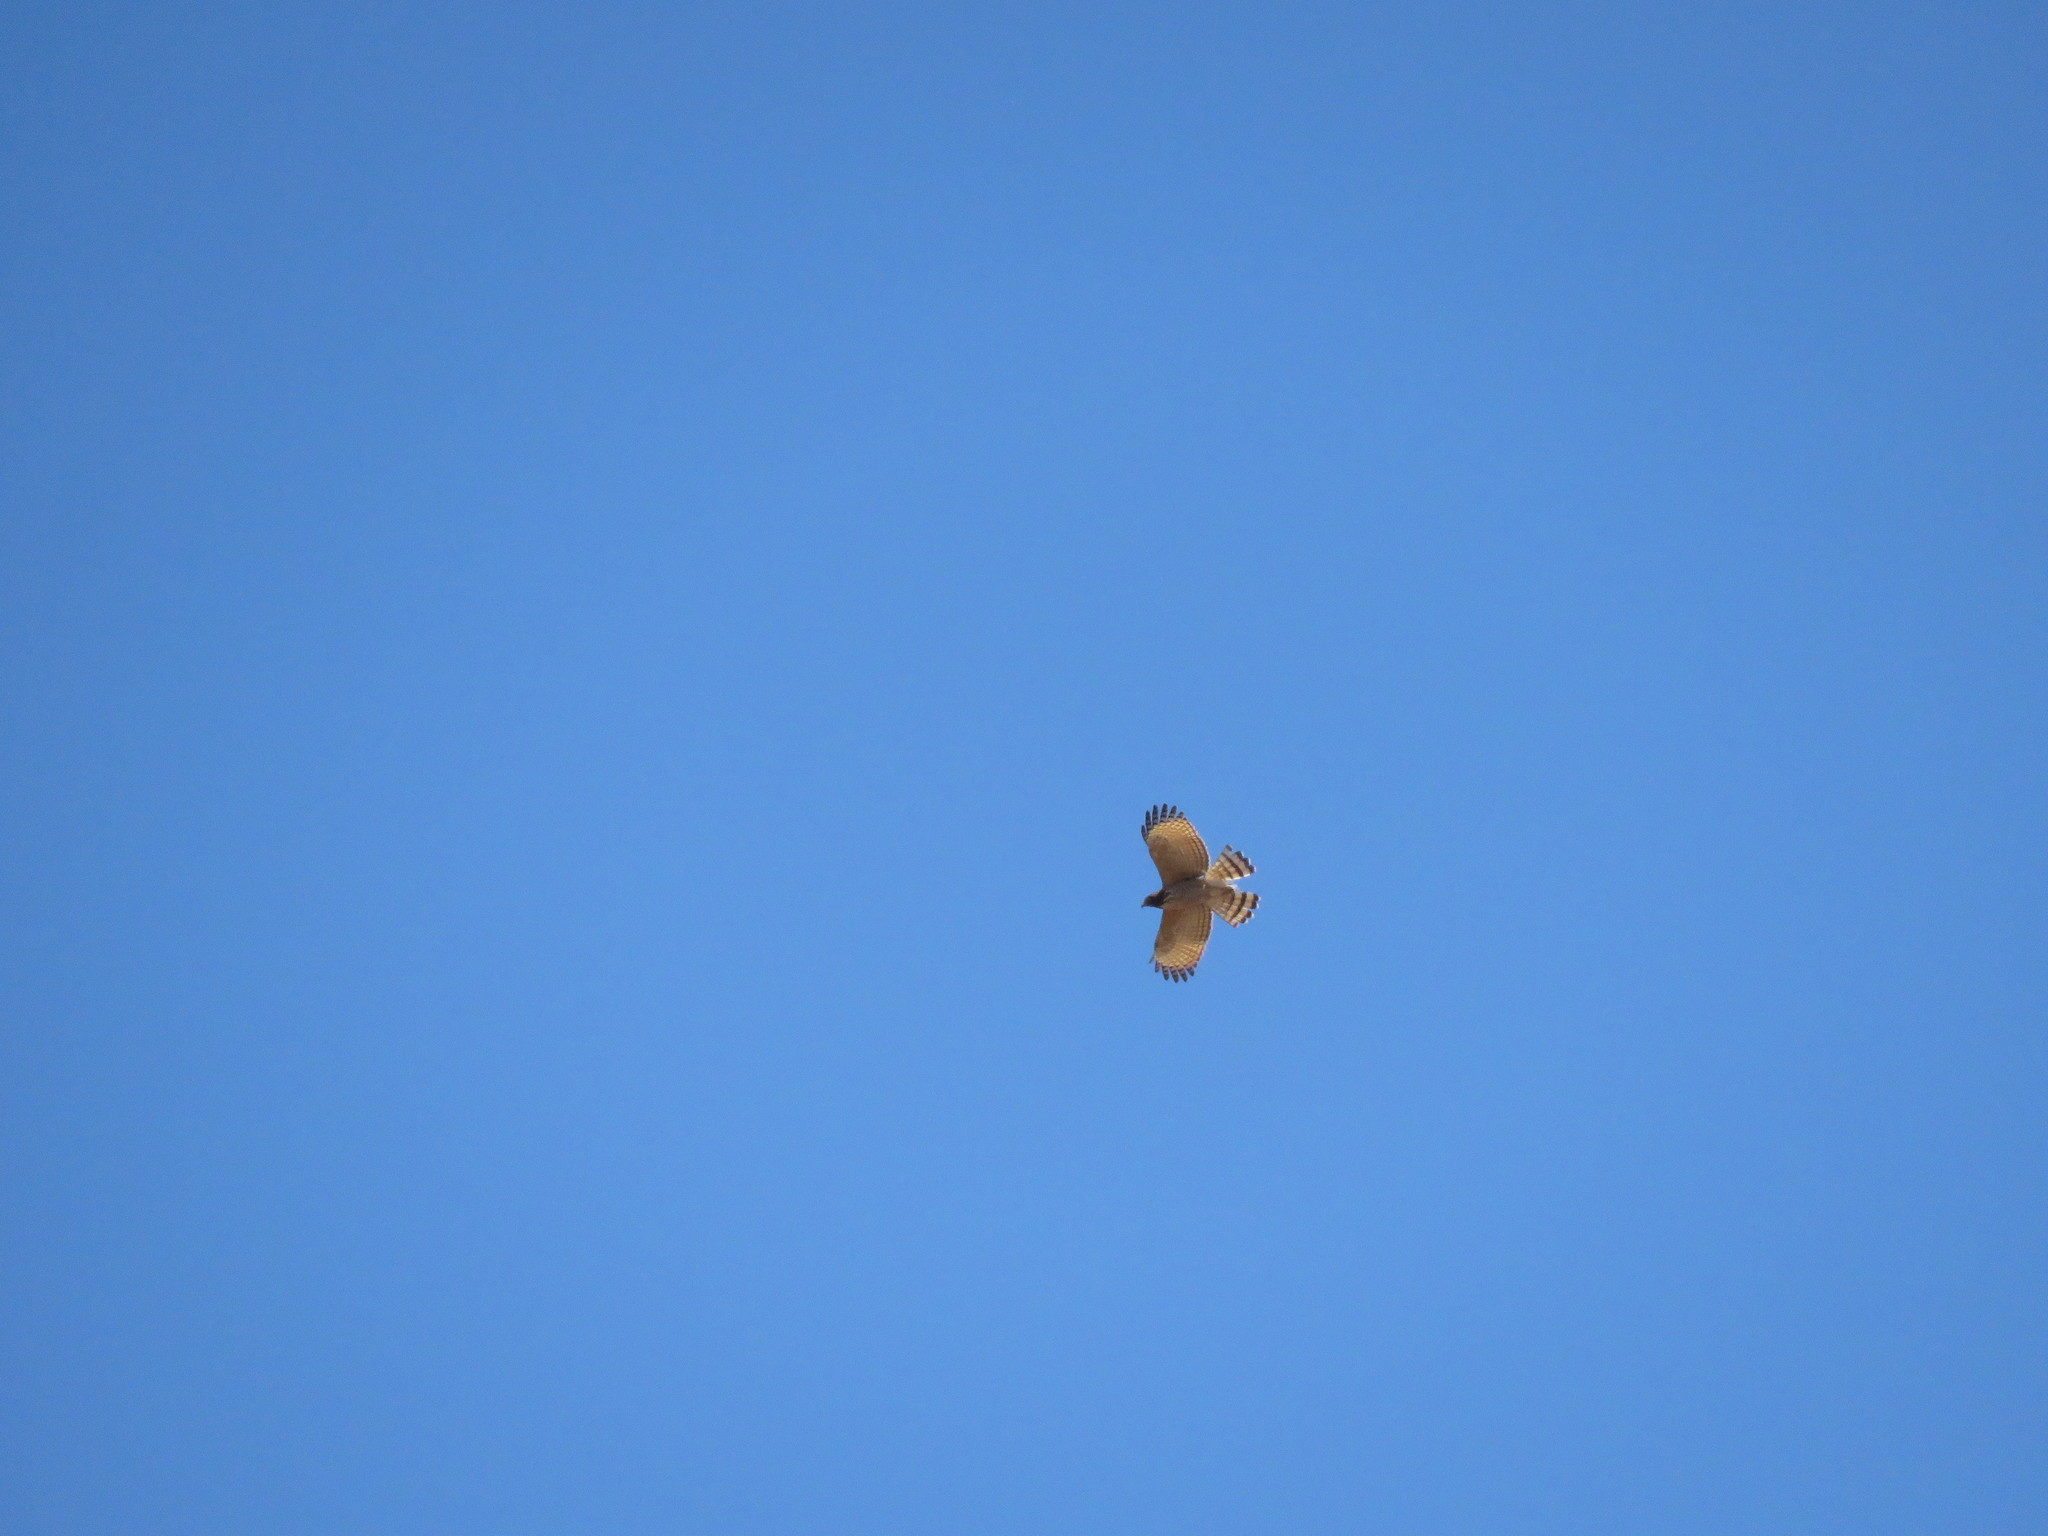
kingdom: Animalia
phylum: Chordata
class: Aves
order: Accipitriformes
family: Accipitridae
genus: Rupornis
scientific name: Rupornis magnirostris
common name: Roadside hawk
